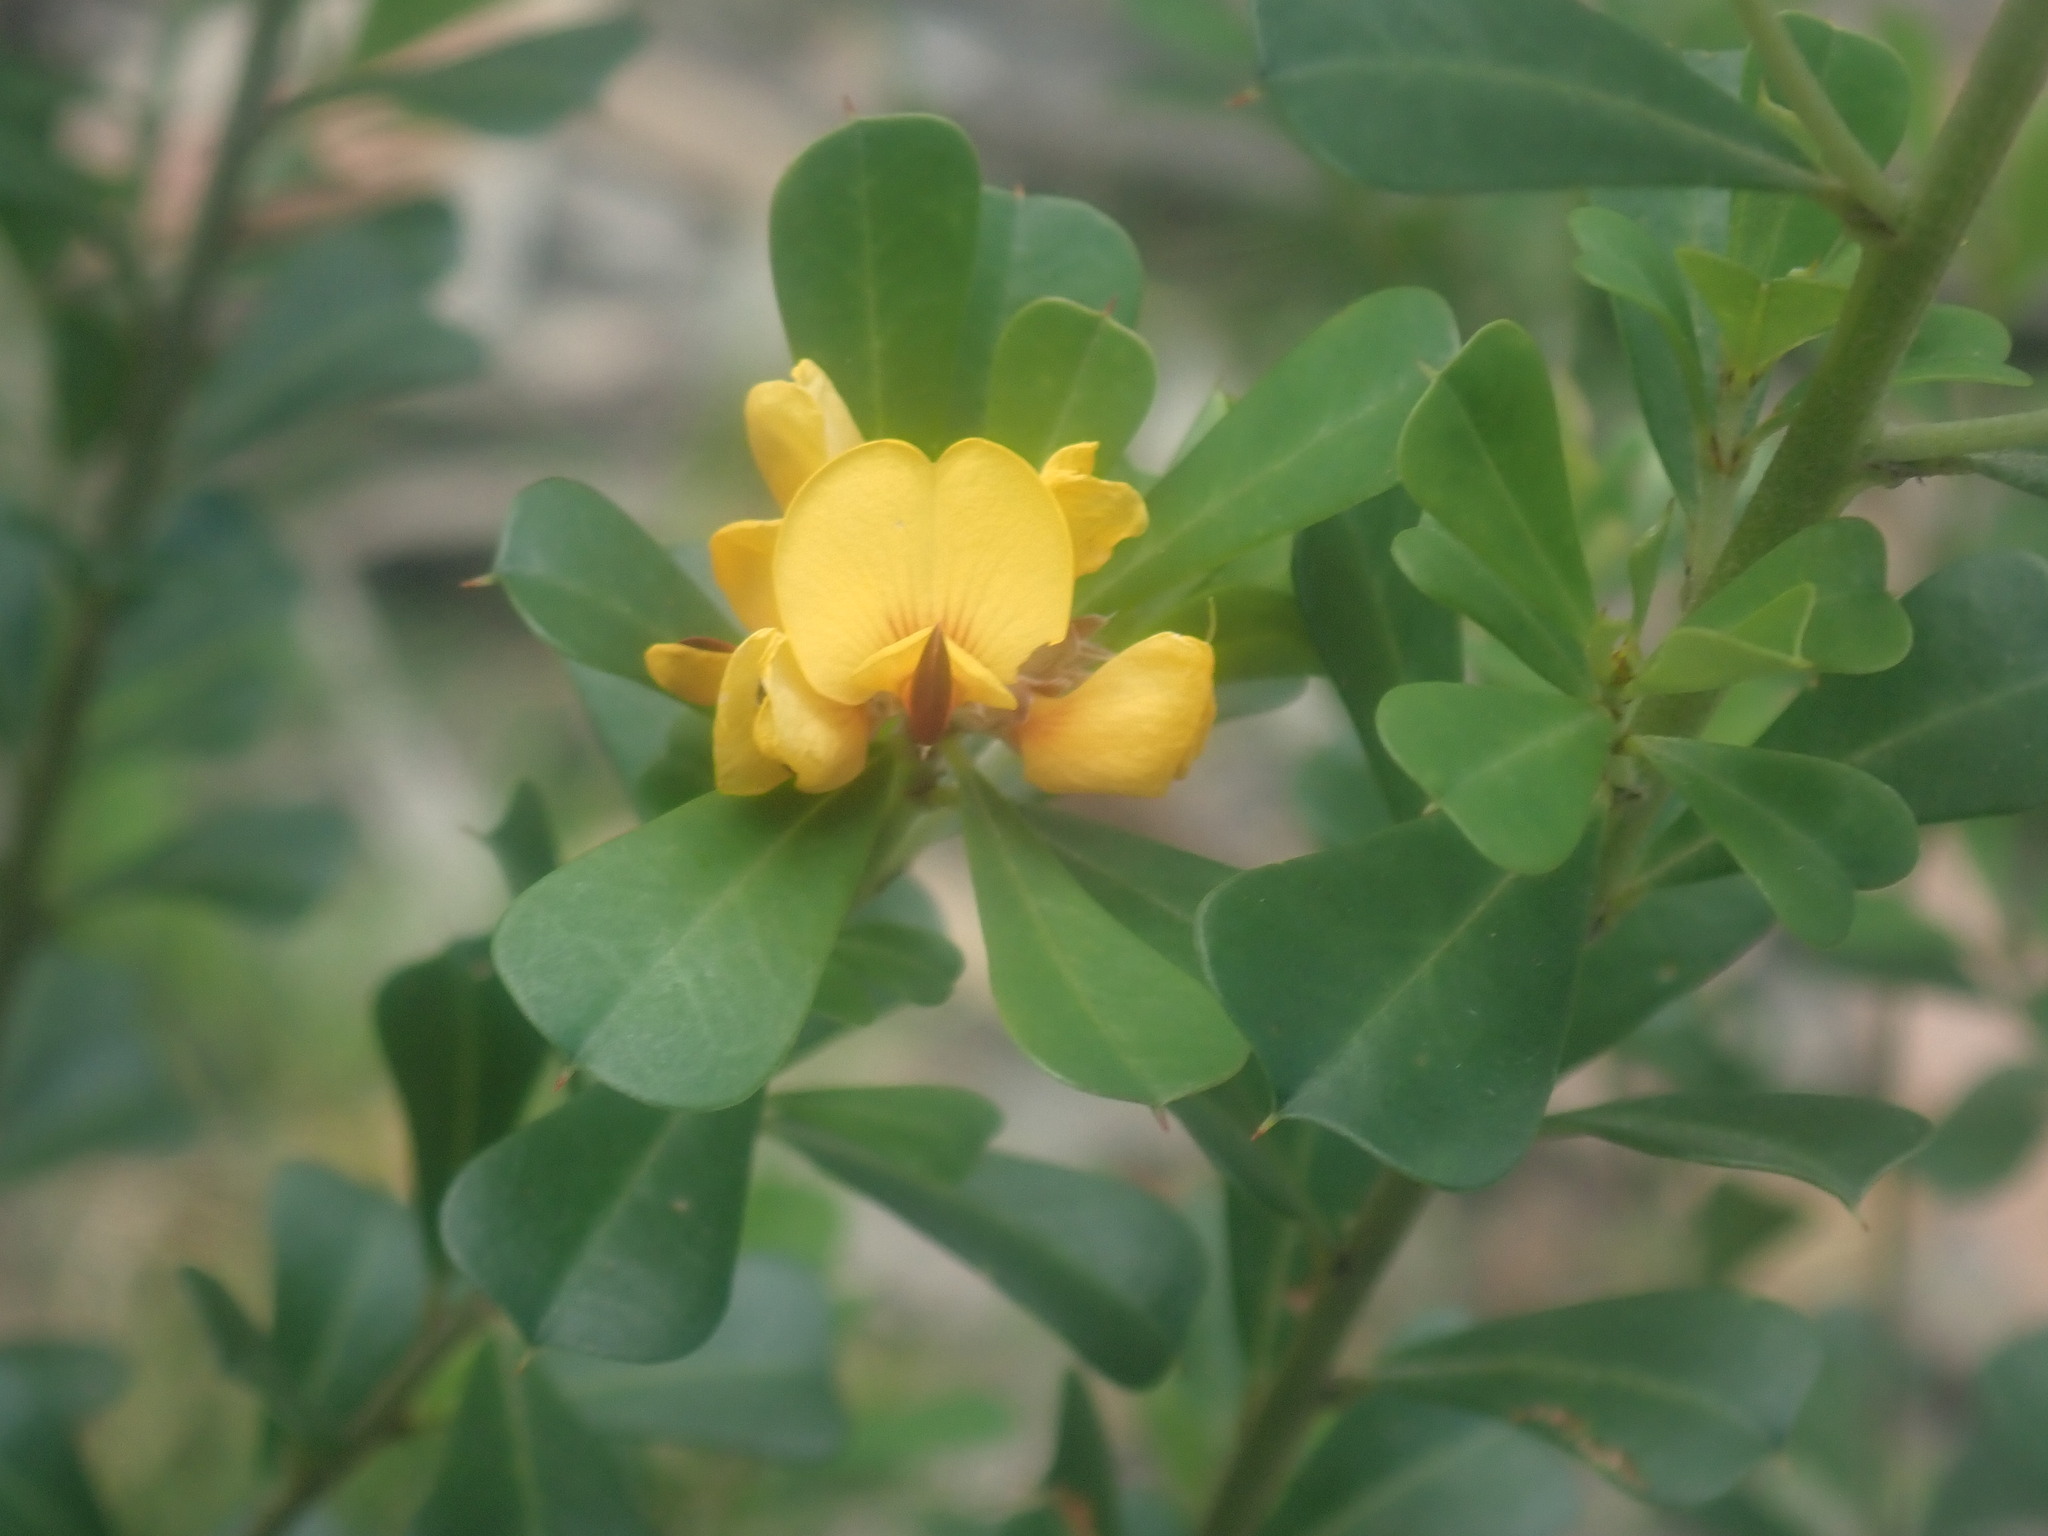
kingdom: Plantae
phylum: Tracheophyta
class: Magnoliopsida
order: Fabales
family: Fabaceae
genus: Pultenaea
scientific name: Pultenaea daphnoides
